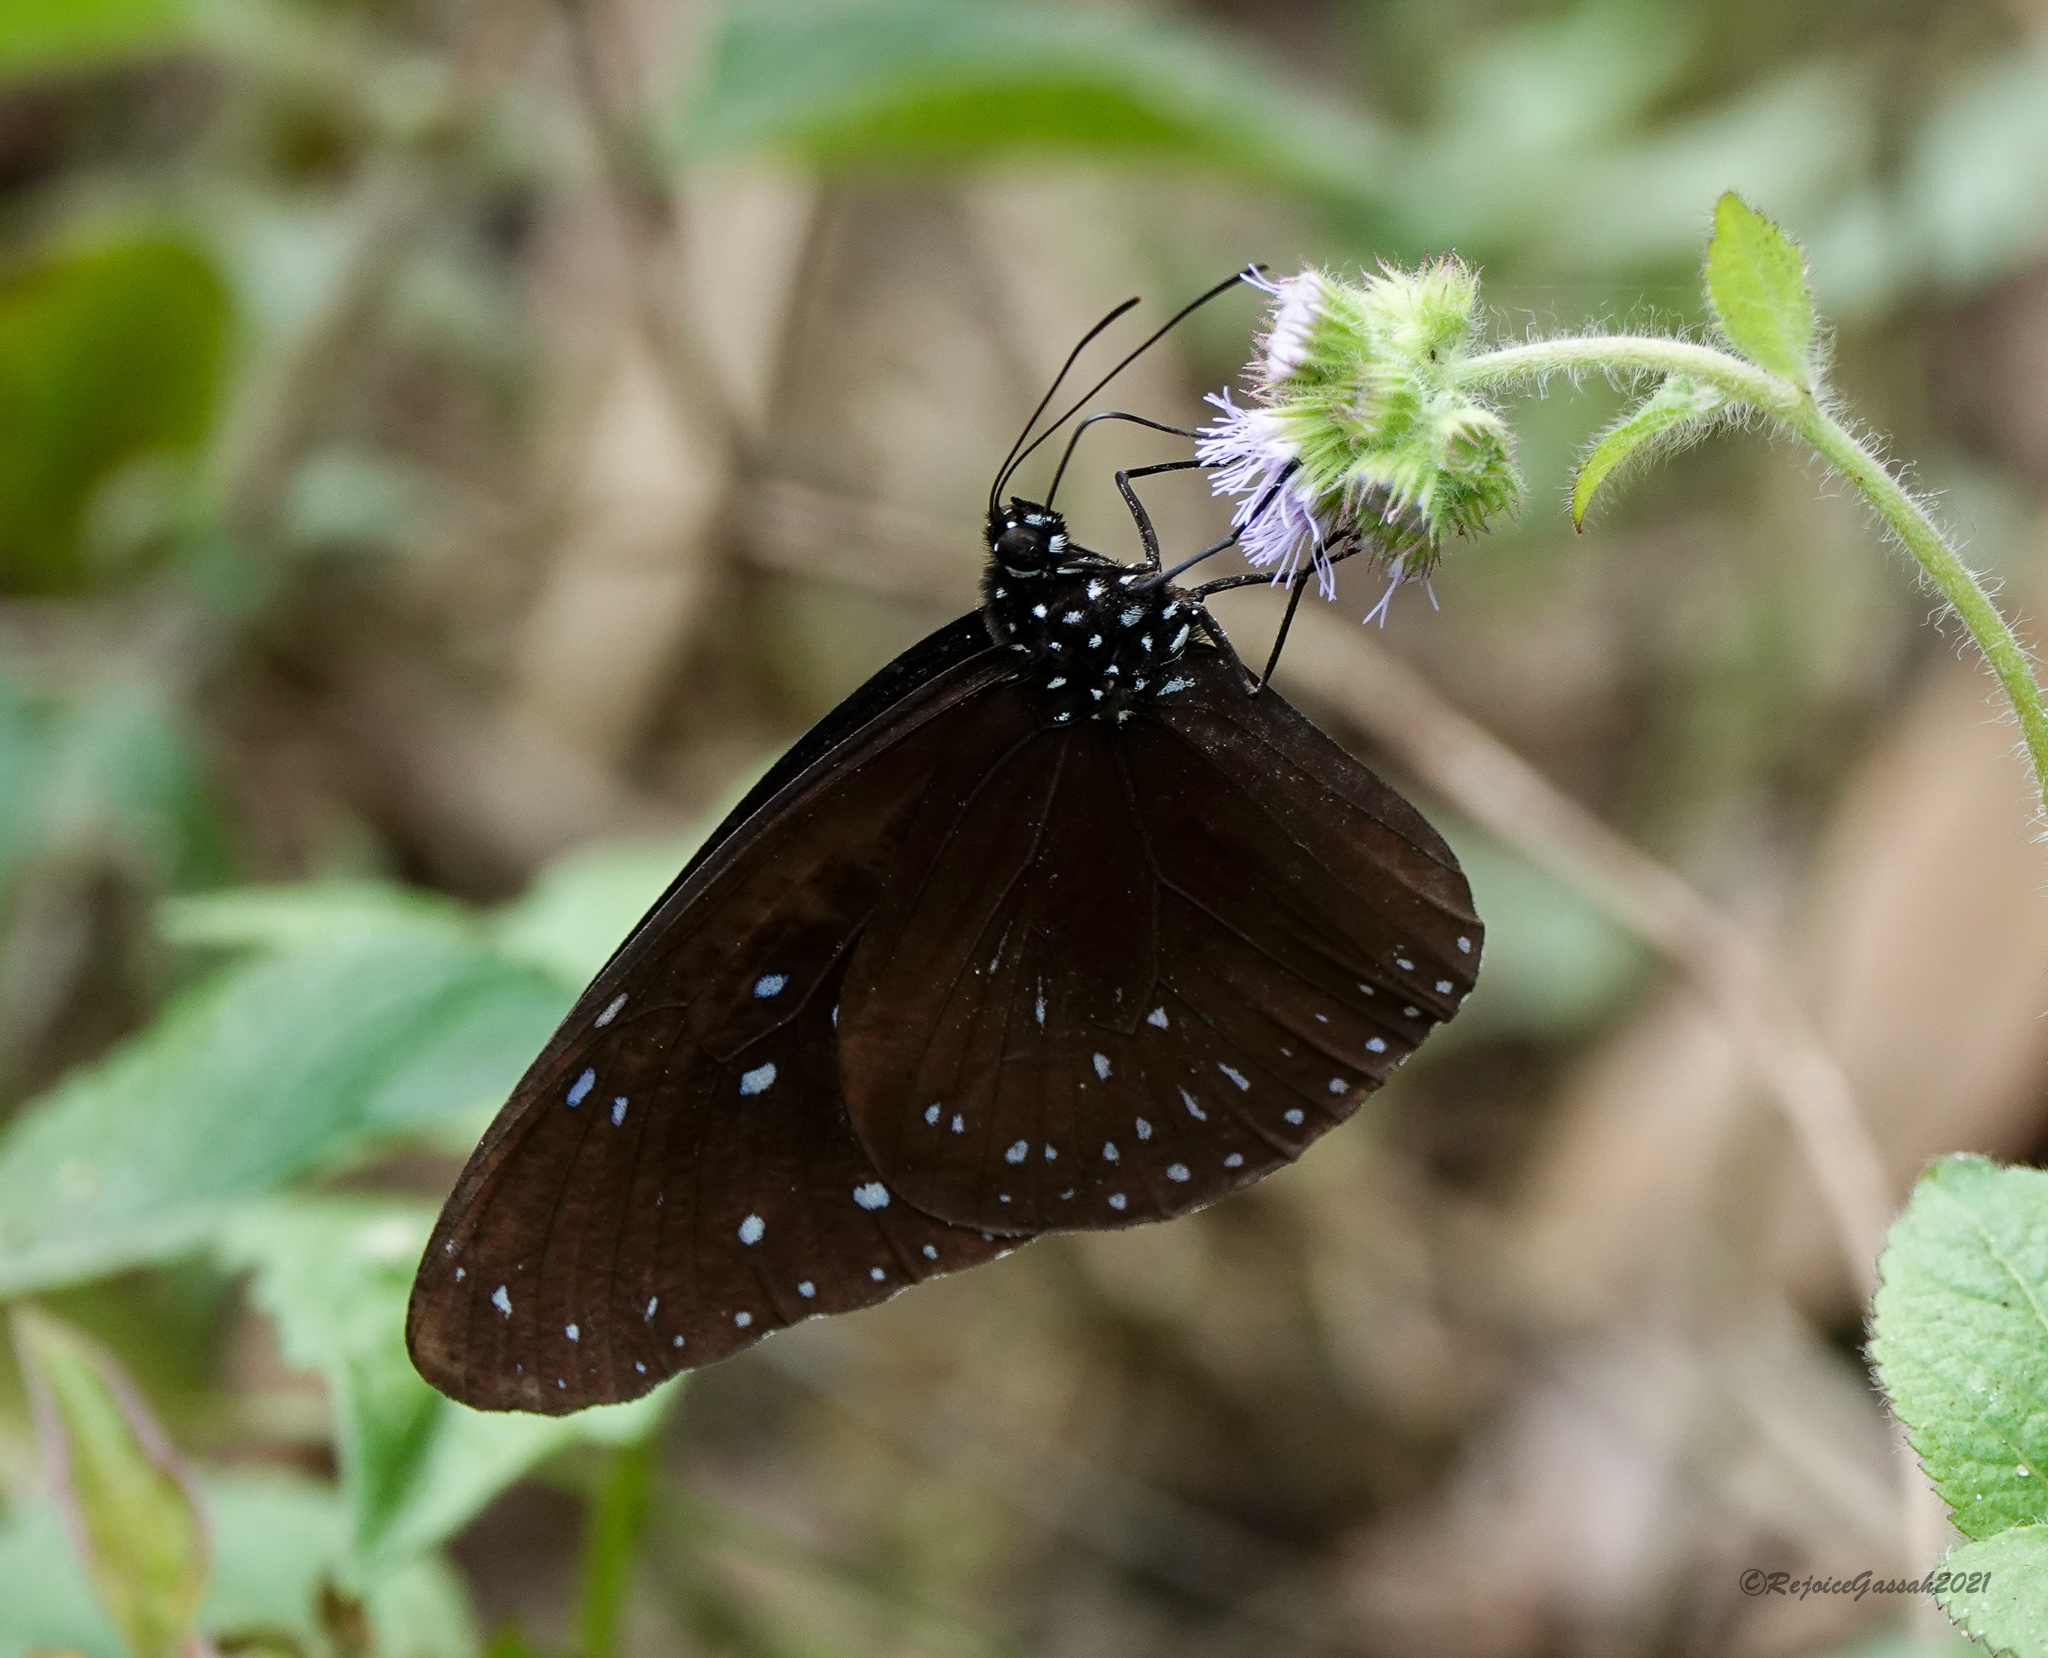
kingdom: Animalia
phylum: Arthropoda
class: Insecta
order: Lepidoptera
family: Nymphalidae
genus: Euploea
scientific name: Euploea mulciber
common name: Striped blue crow butterfly
